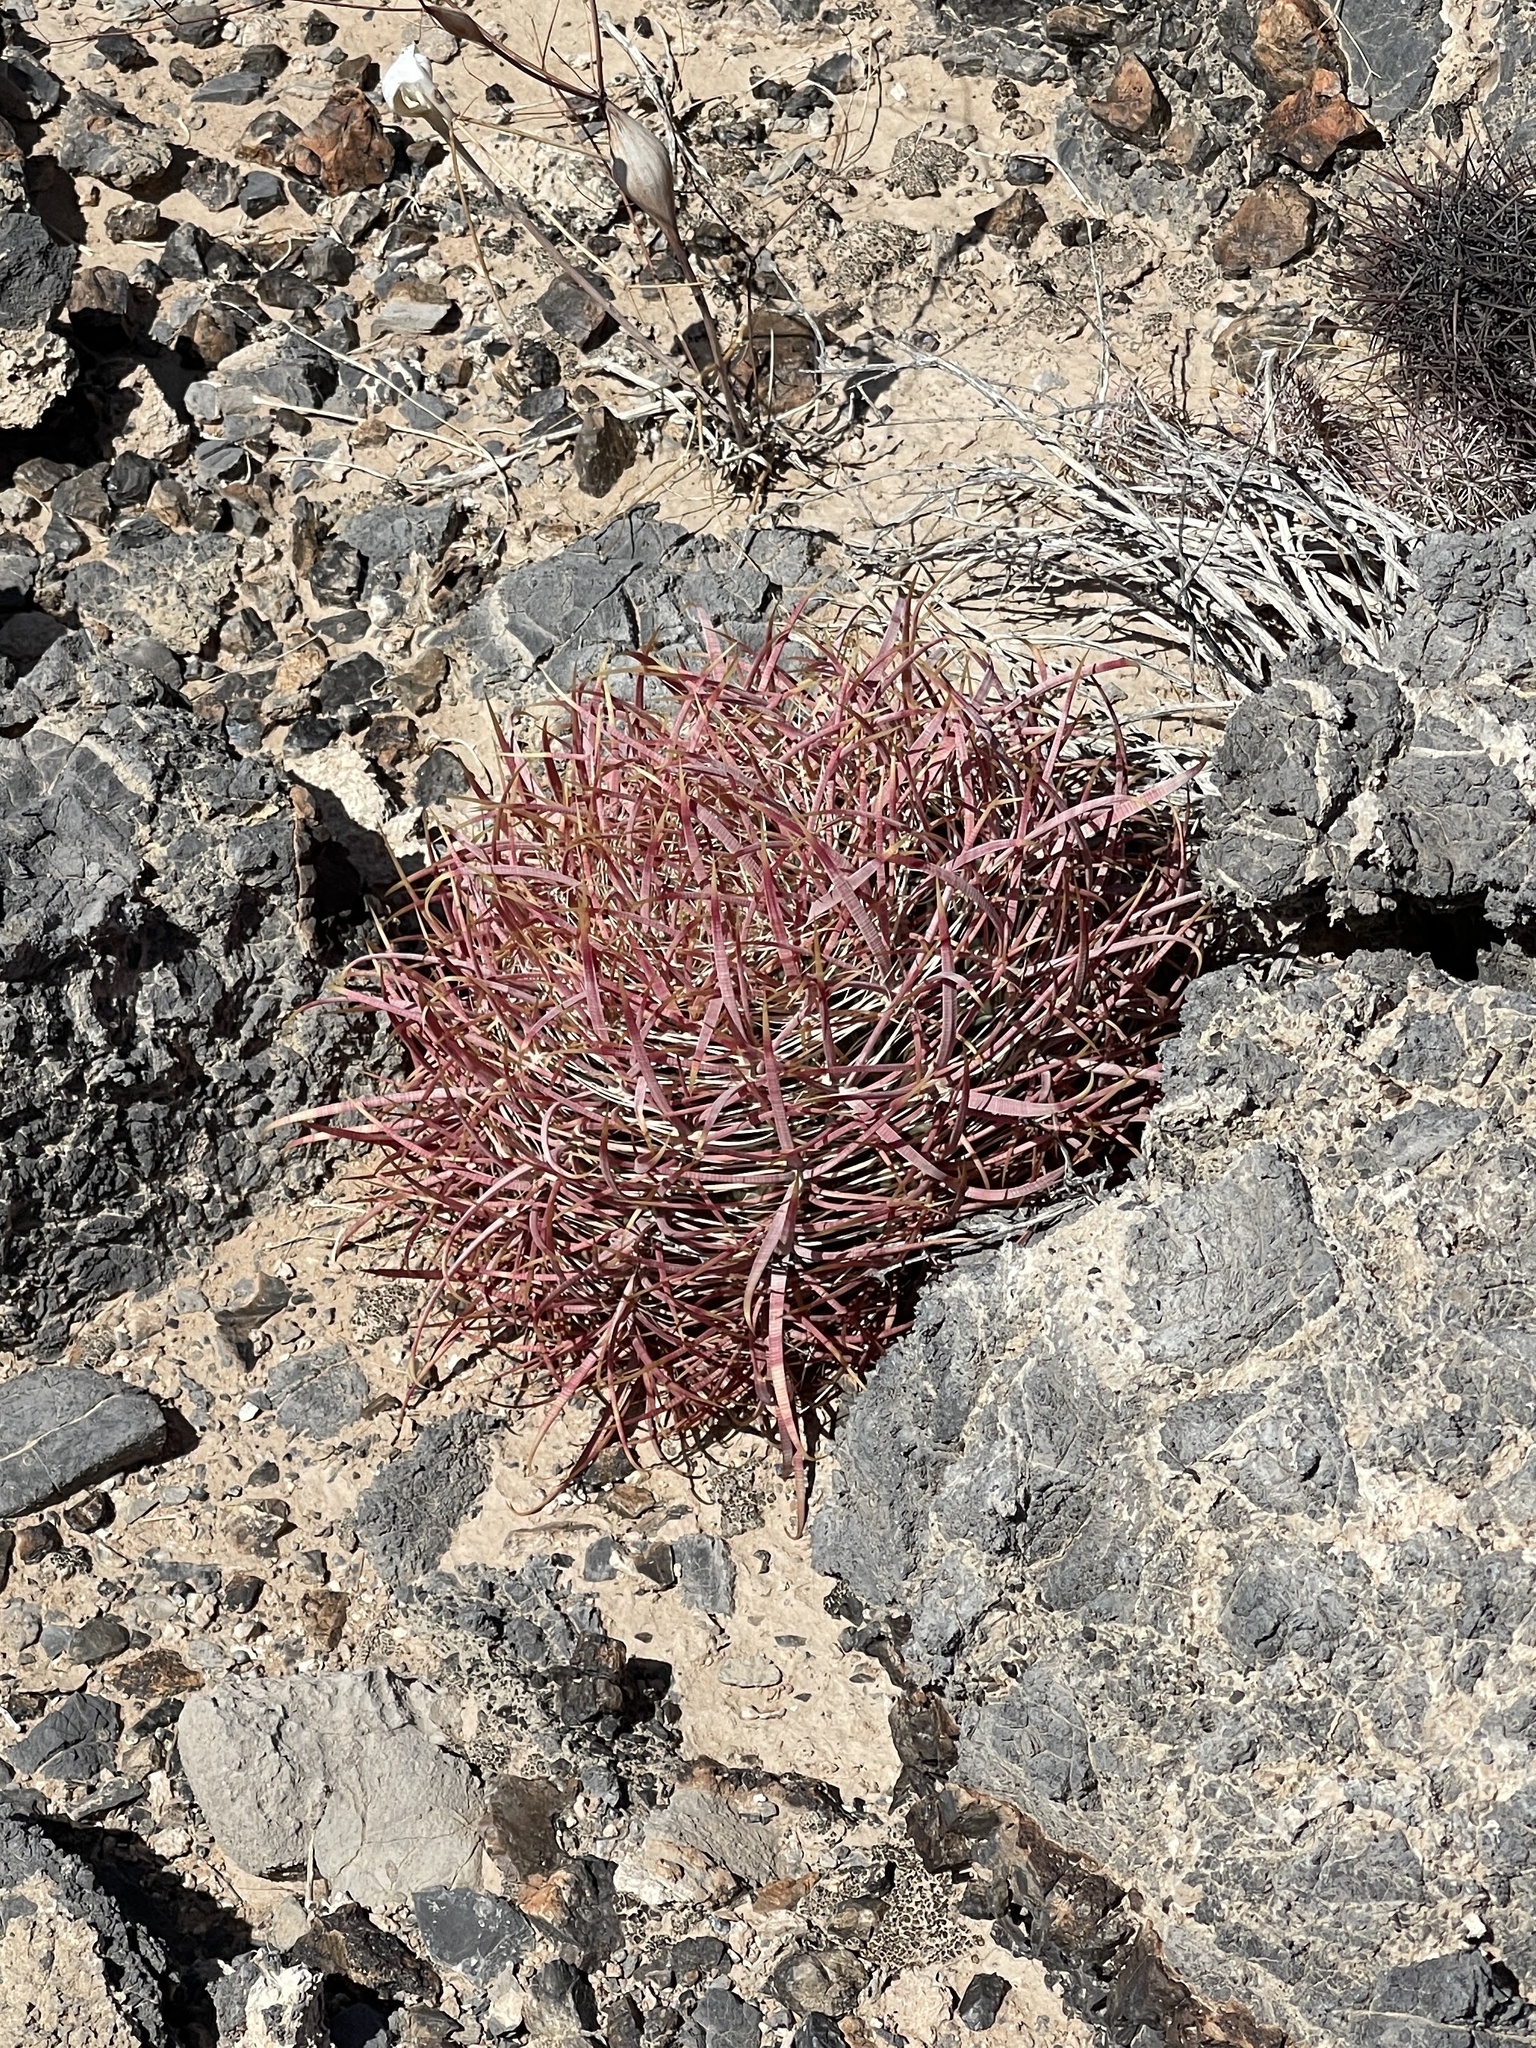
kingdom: Plantae
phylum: Tracheophyta
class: Magnoliopsida
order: Caryophyllales
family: Cactaceae
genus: Ferocactus
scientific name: Ferocactus cylindraceus
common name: California barrel cactus
